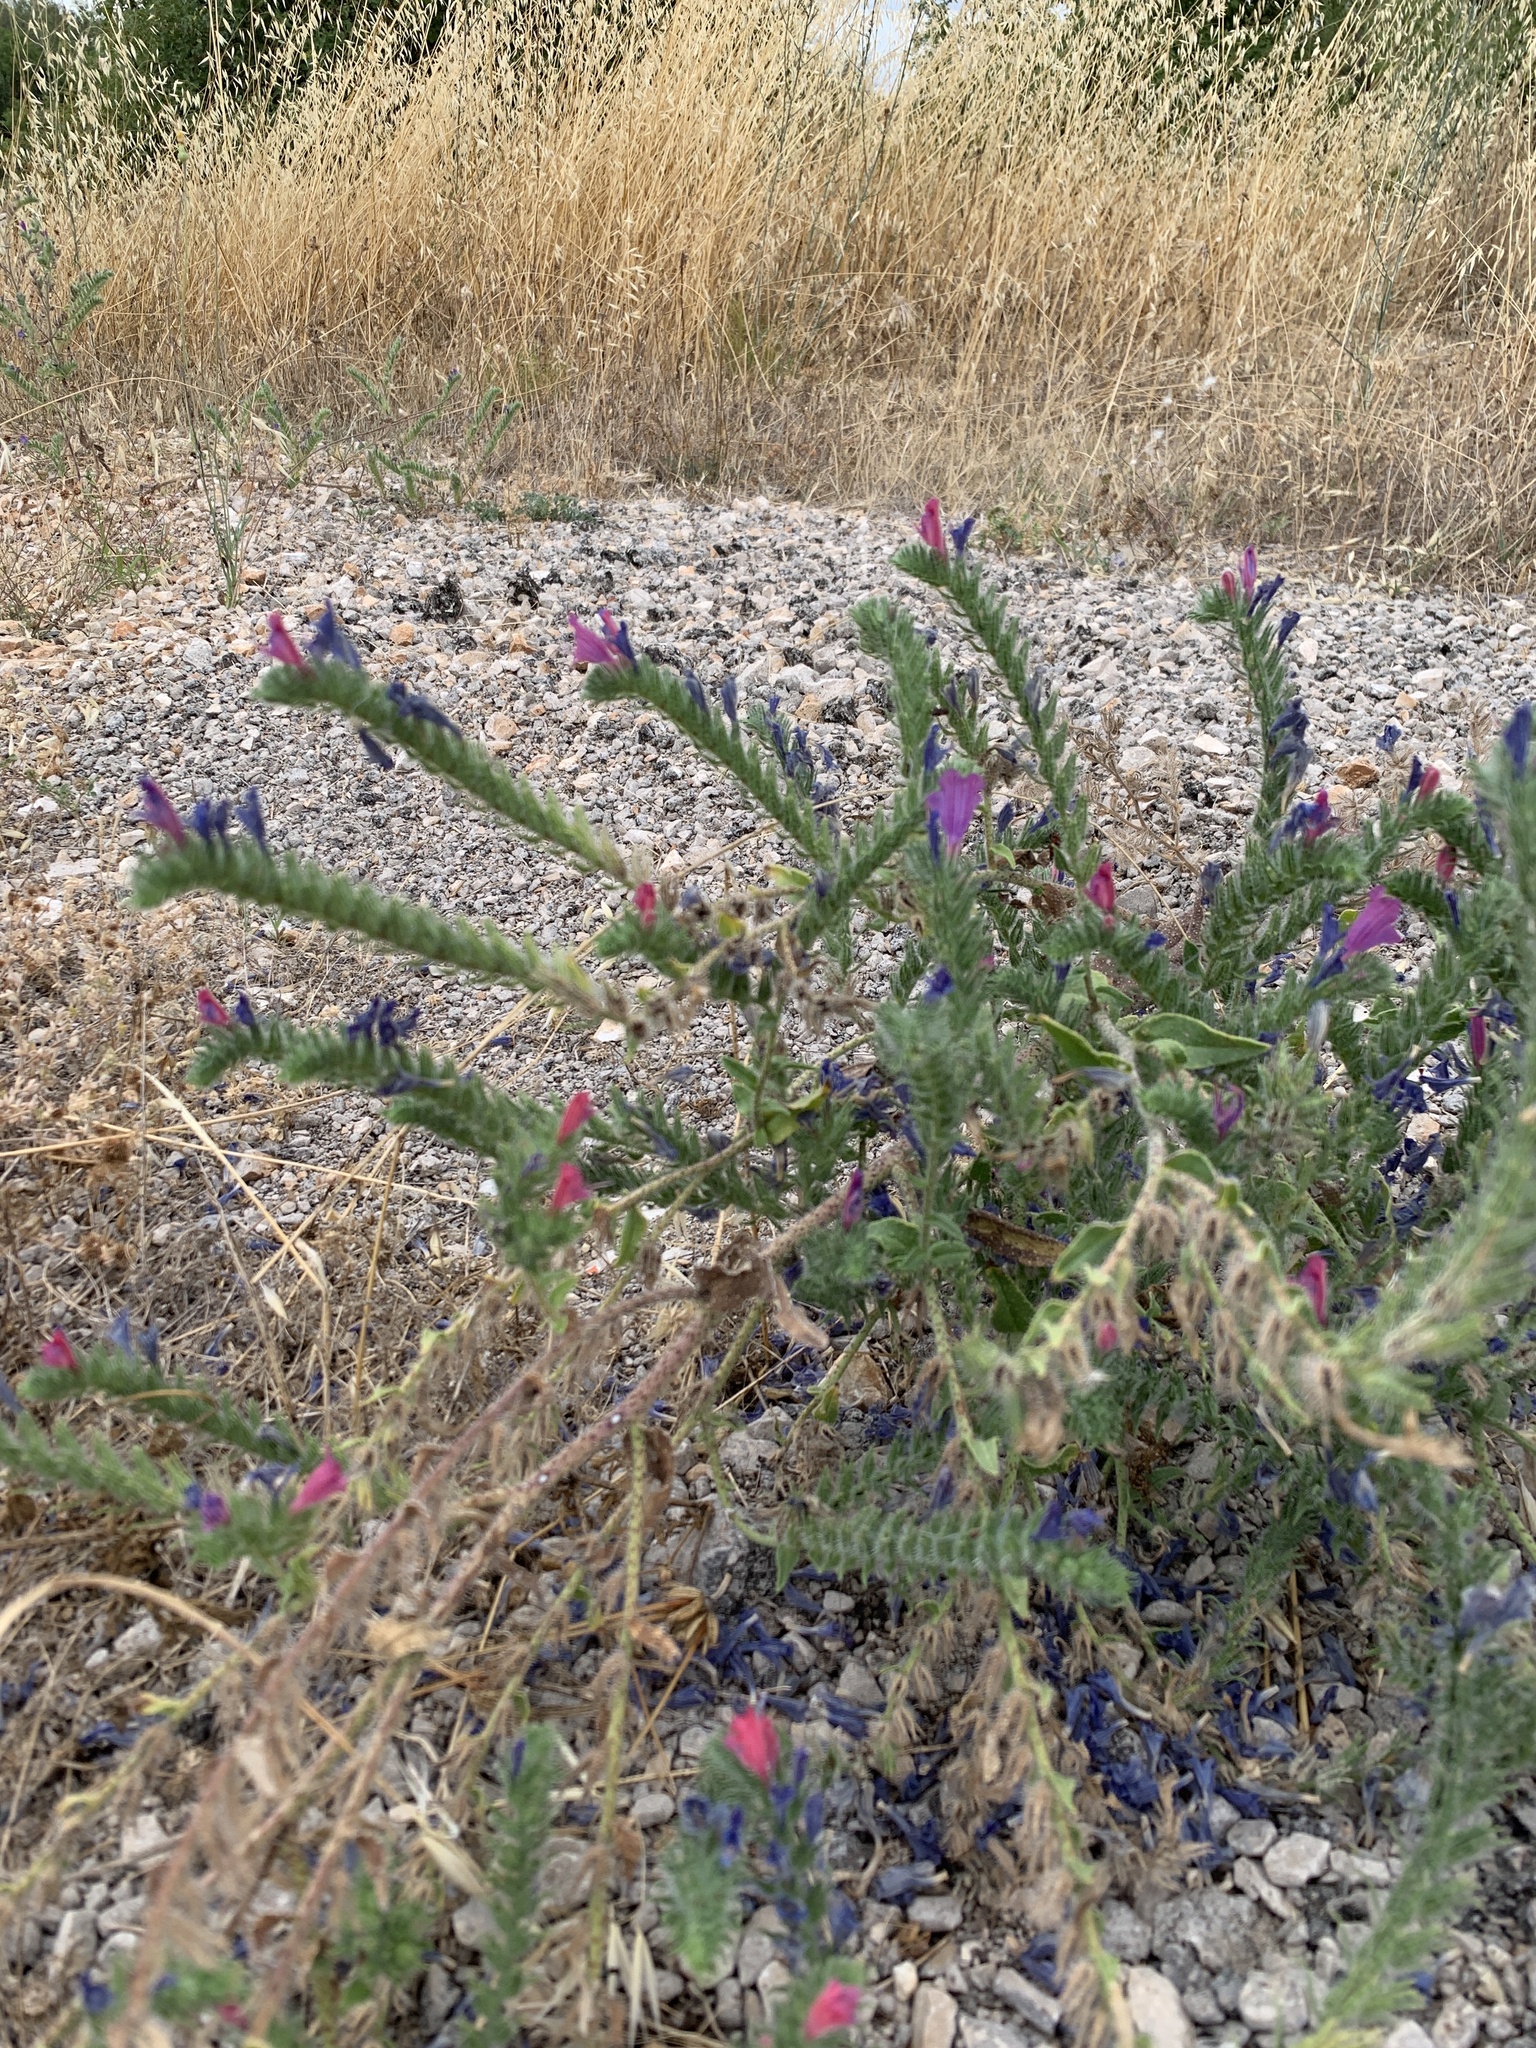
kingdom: Plantae
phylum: Tracheophyta
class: Magnoliopsida
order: Boraginales
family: Boraginaceae
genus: Echium
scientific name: Echium vulgare
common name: Common viper's bugloss
